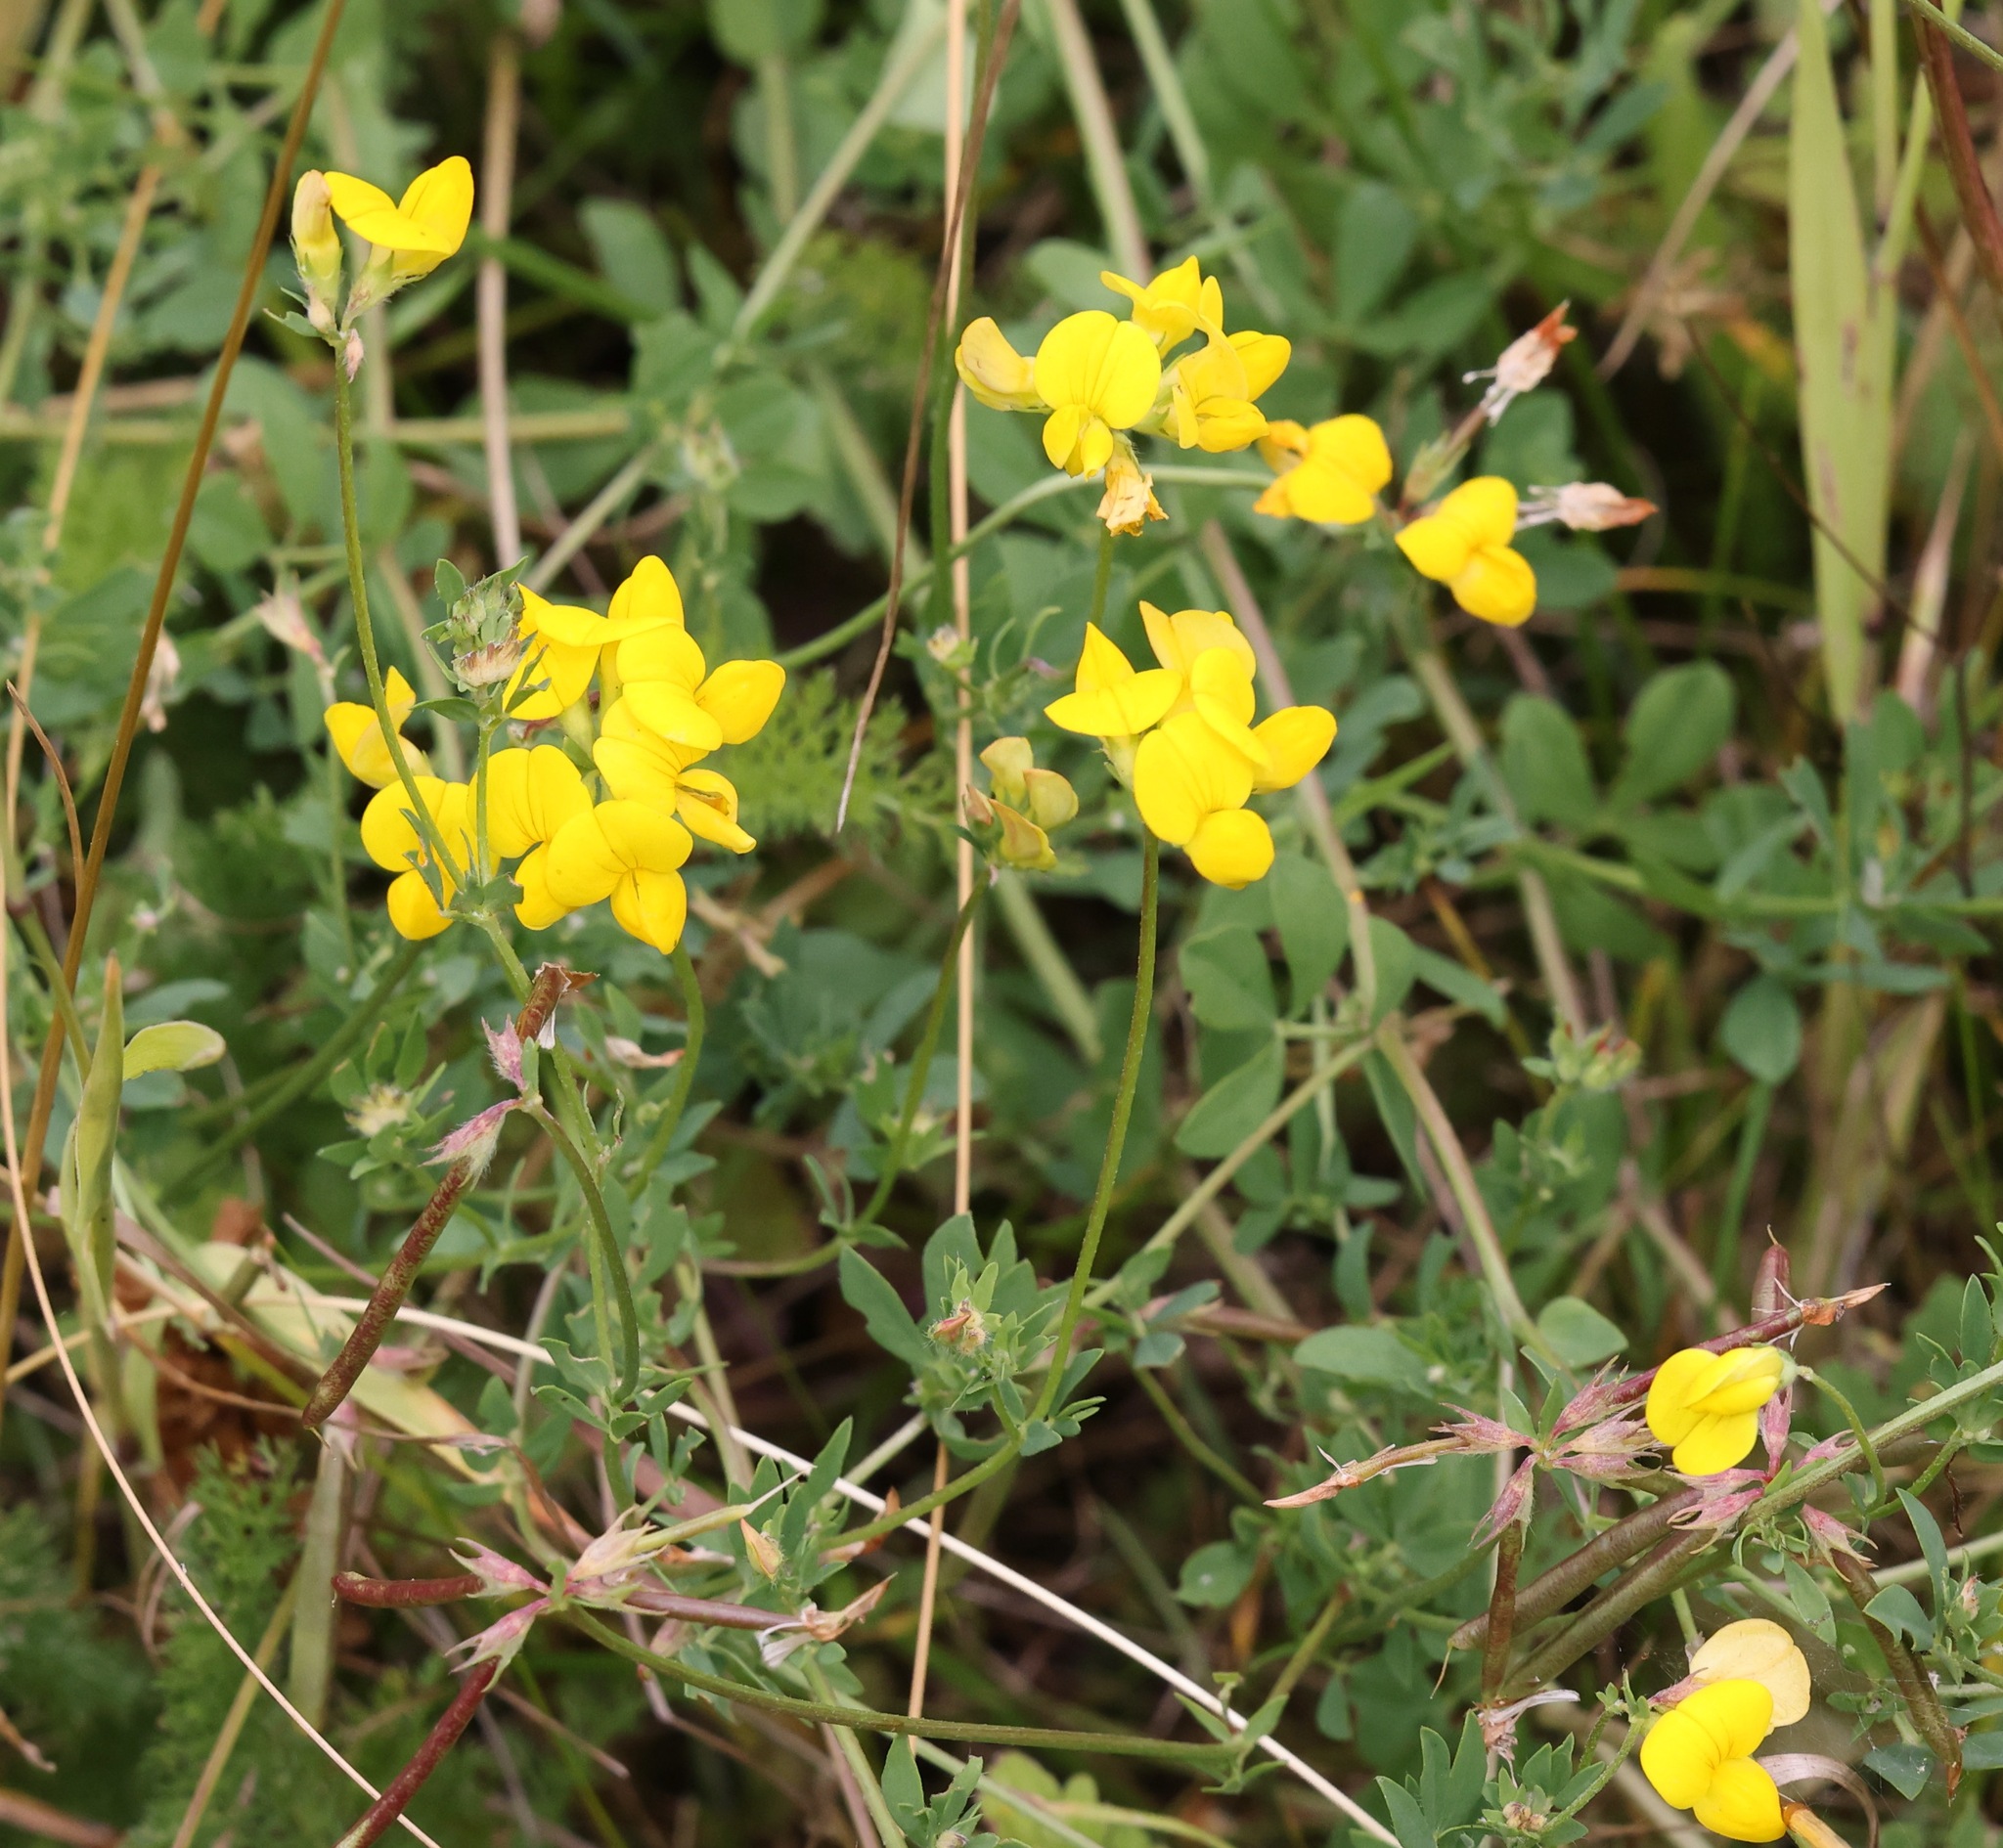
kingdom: Plantae
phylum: Tracheophyta
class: Magnoliopsida
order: Fabales
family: Fabaceae
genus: Lotus
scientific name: Lotus corniculatus
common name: Common bird's-foot-trefoil
